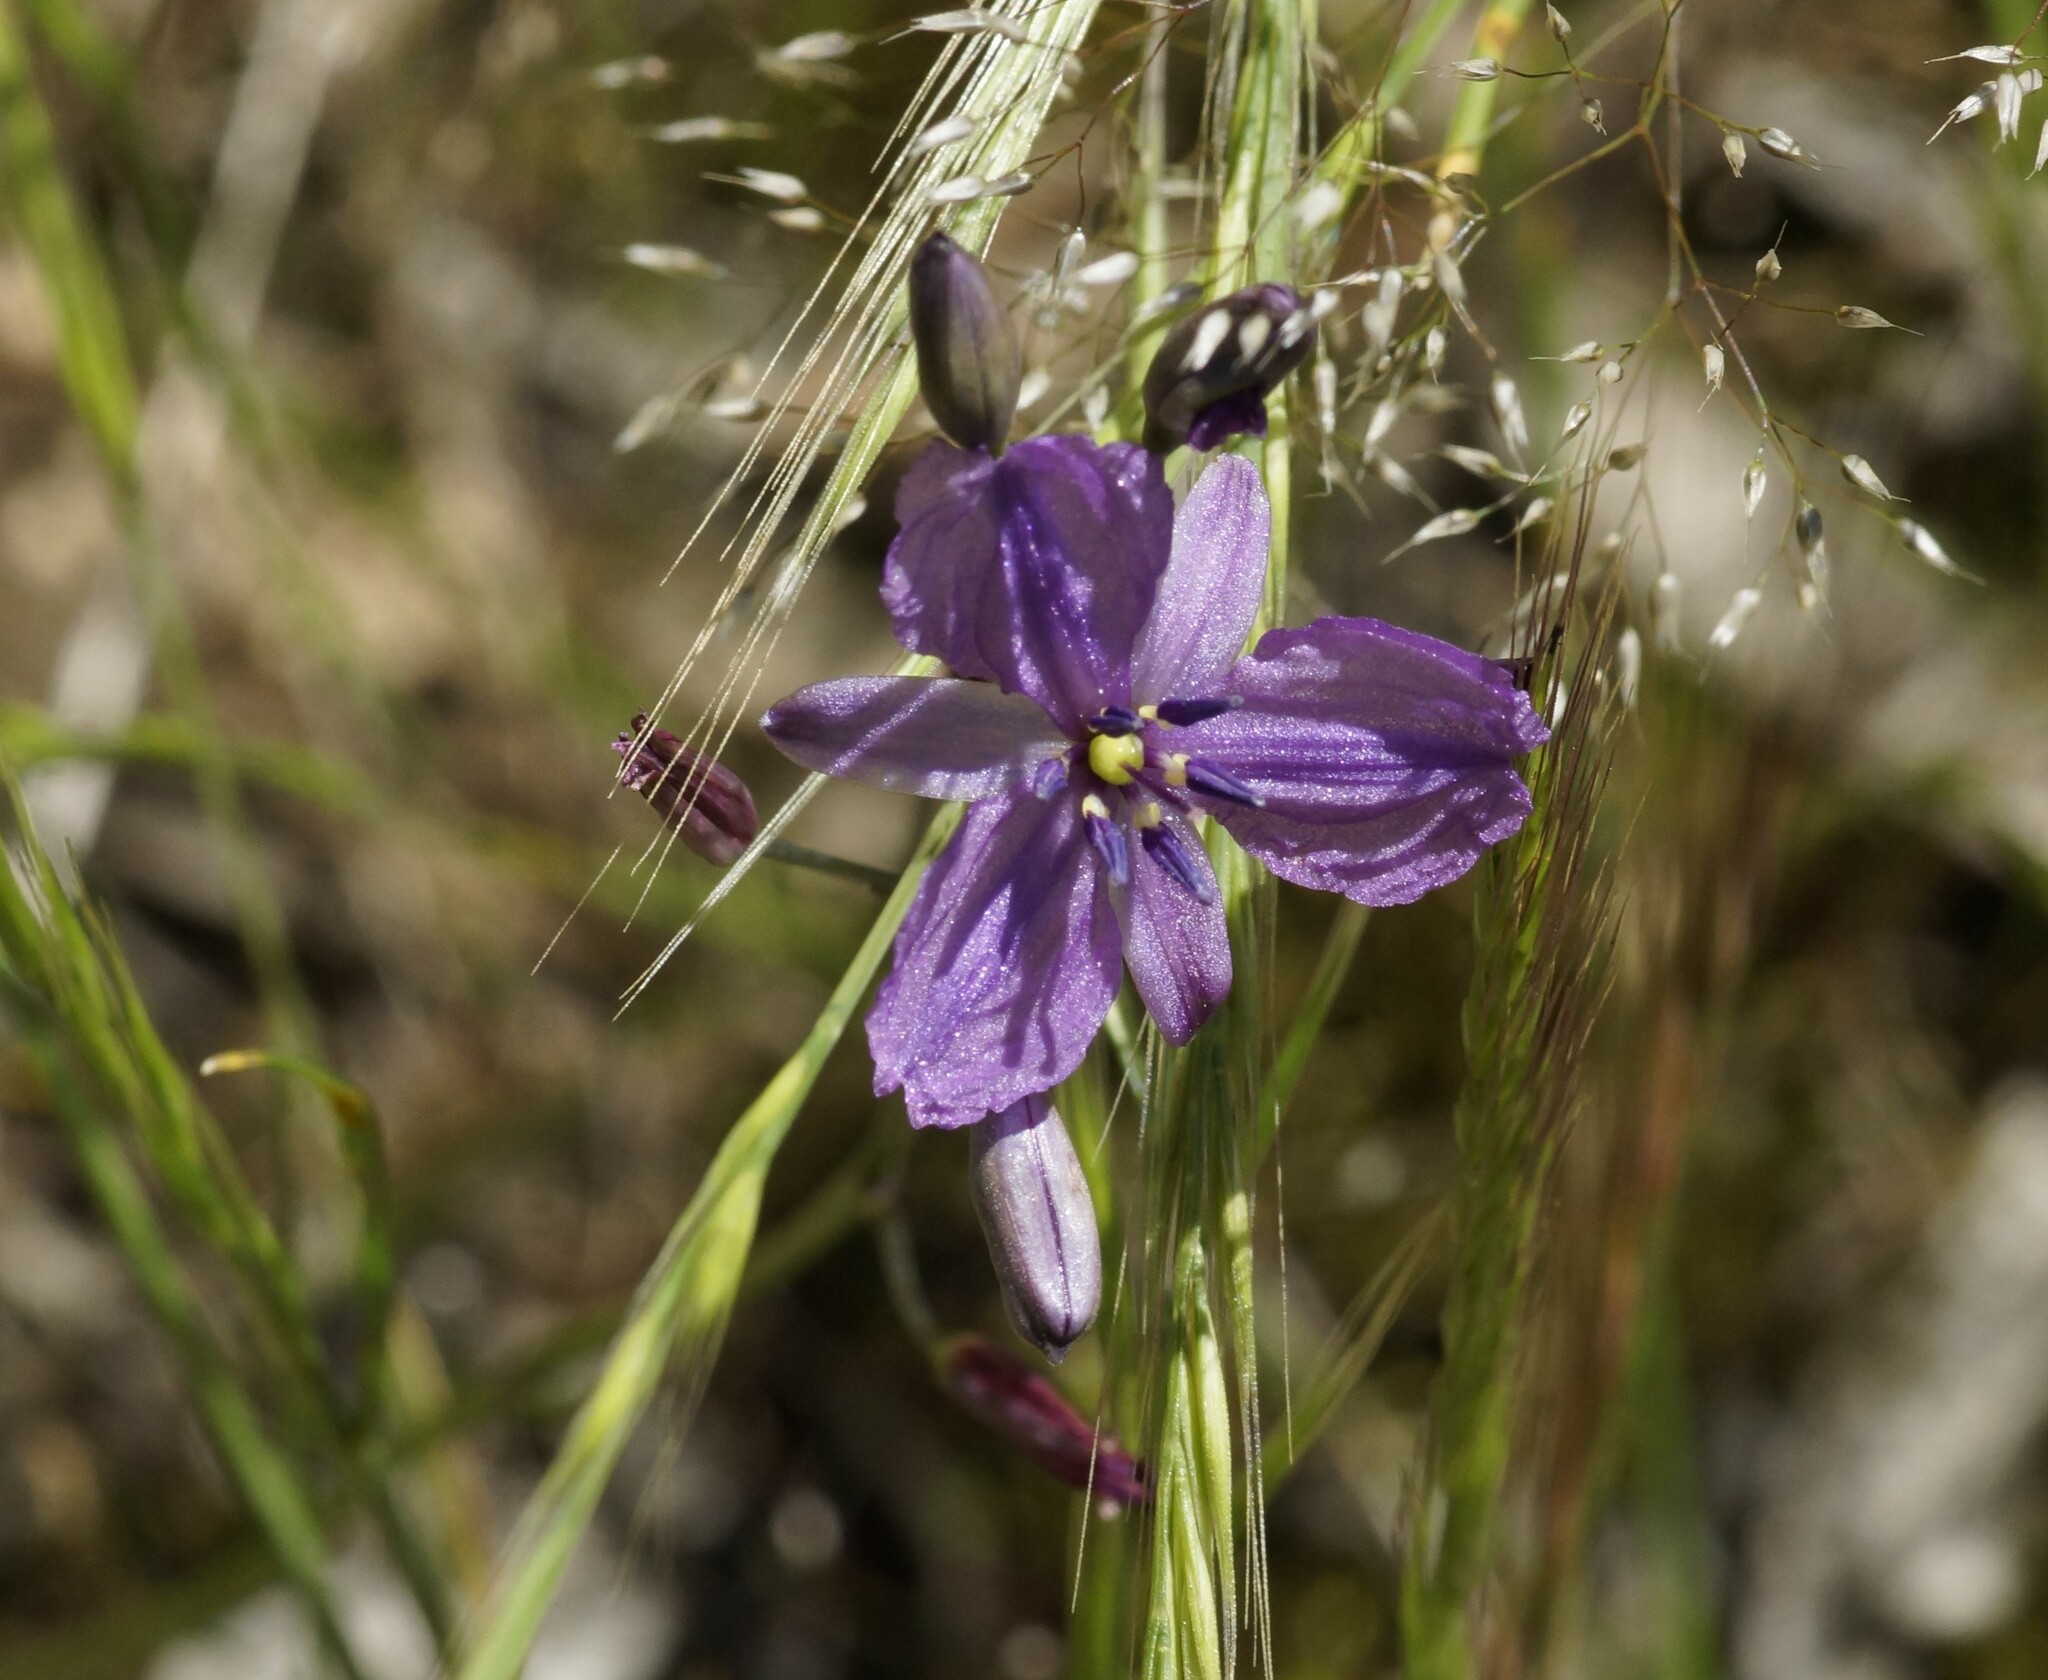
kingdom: Plantae
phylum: Tracheophyta
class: Liliopsida
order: Asparagales
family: Asparagaceae
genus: Arthropodium
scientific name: Arthropodium strictum
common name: Chocolate-lily
